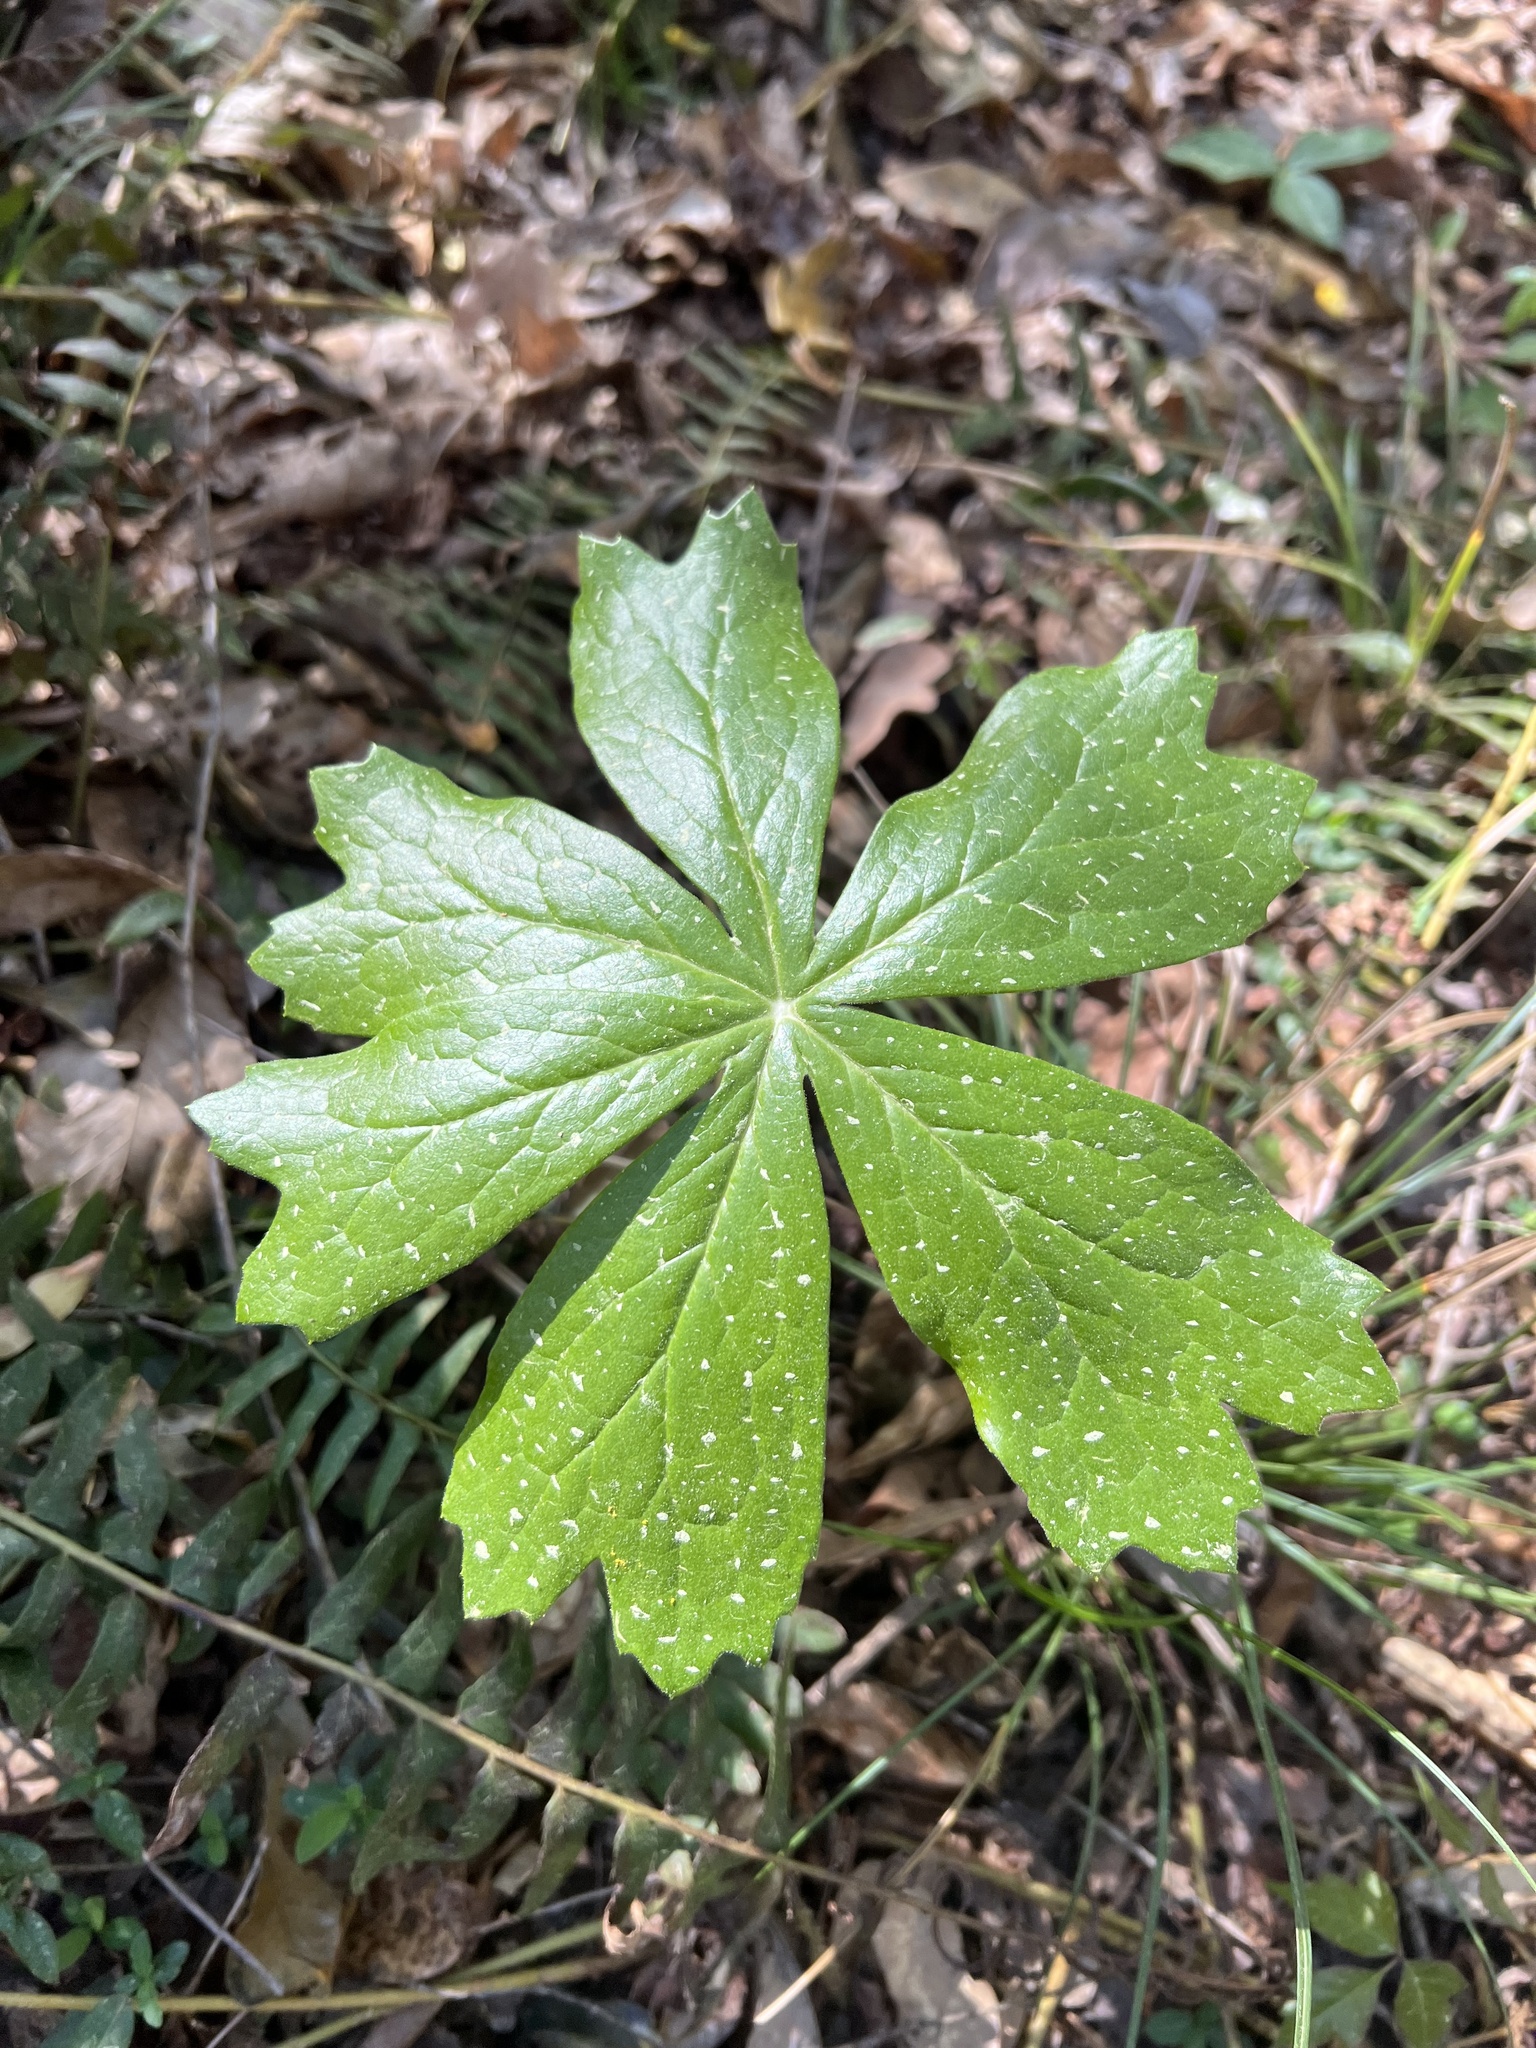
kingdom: Plantae
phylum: Tracheophyta
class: Magnoliopsida
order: Ranunculales
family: Berberidaceae
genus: Podophyllum
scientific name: Podophyllum peltatum
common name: Wild mandrake
